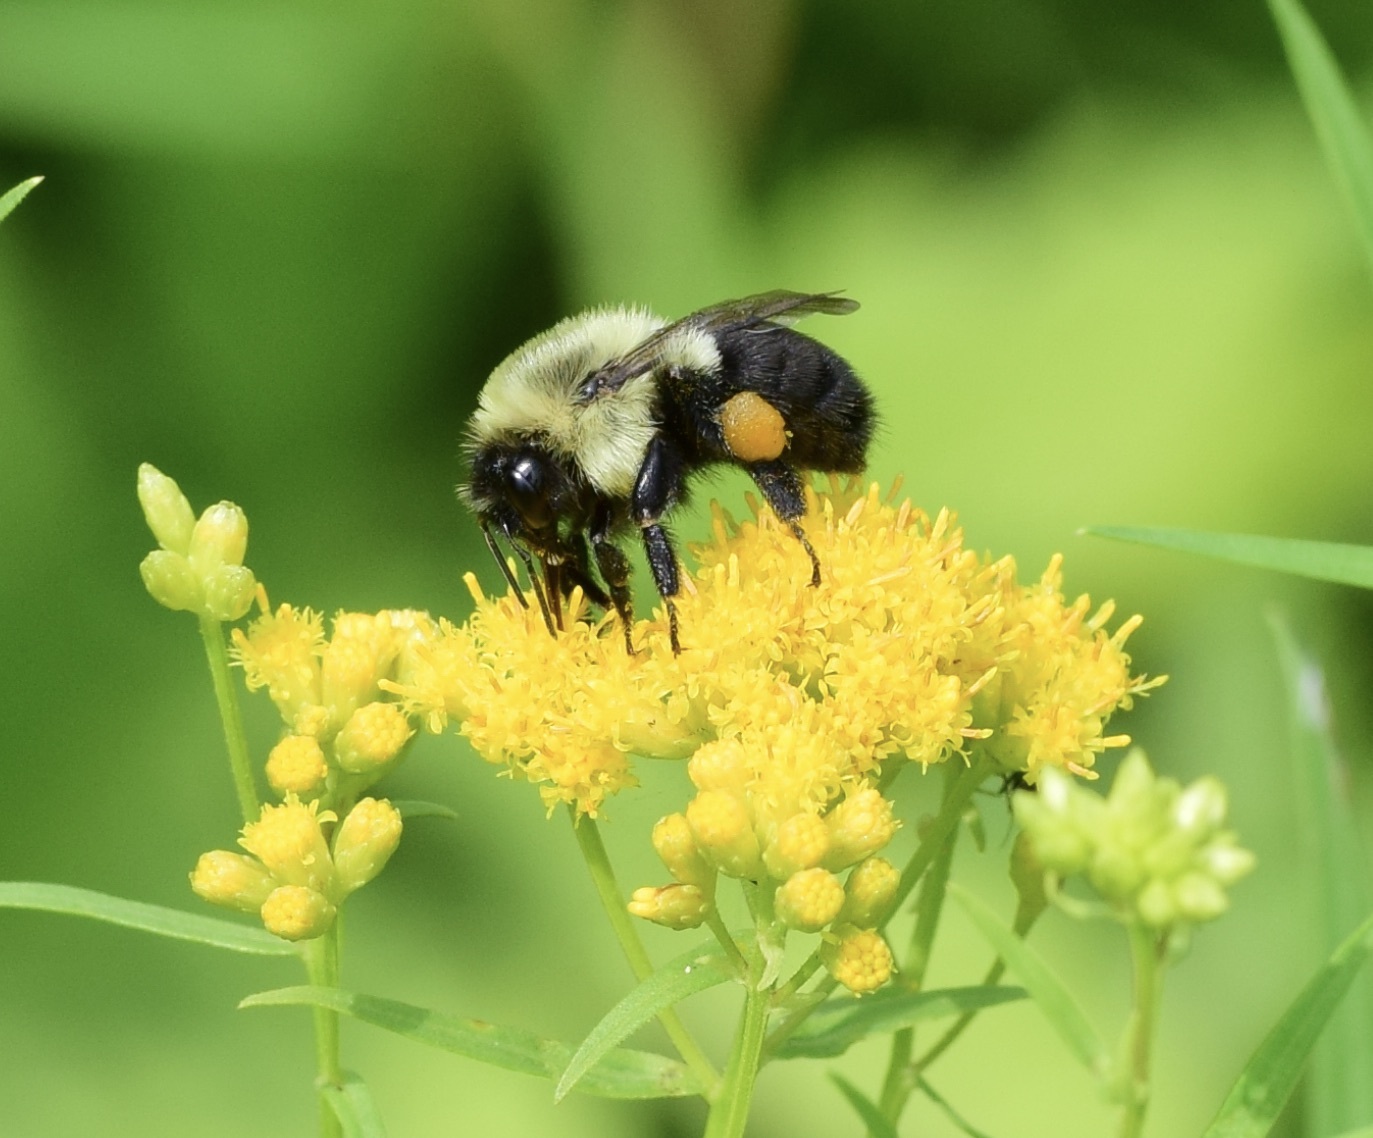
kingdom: Animalia
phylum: Arthropoda
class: Insecta
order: Hymenoptera
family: Apidae
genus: Bombus
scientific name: Bombus impatiens
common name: Common eastern bumble bee
